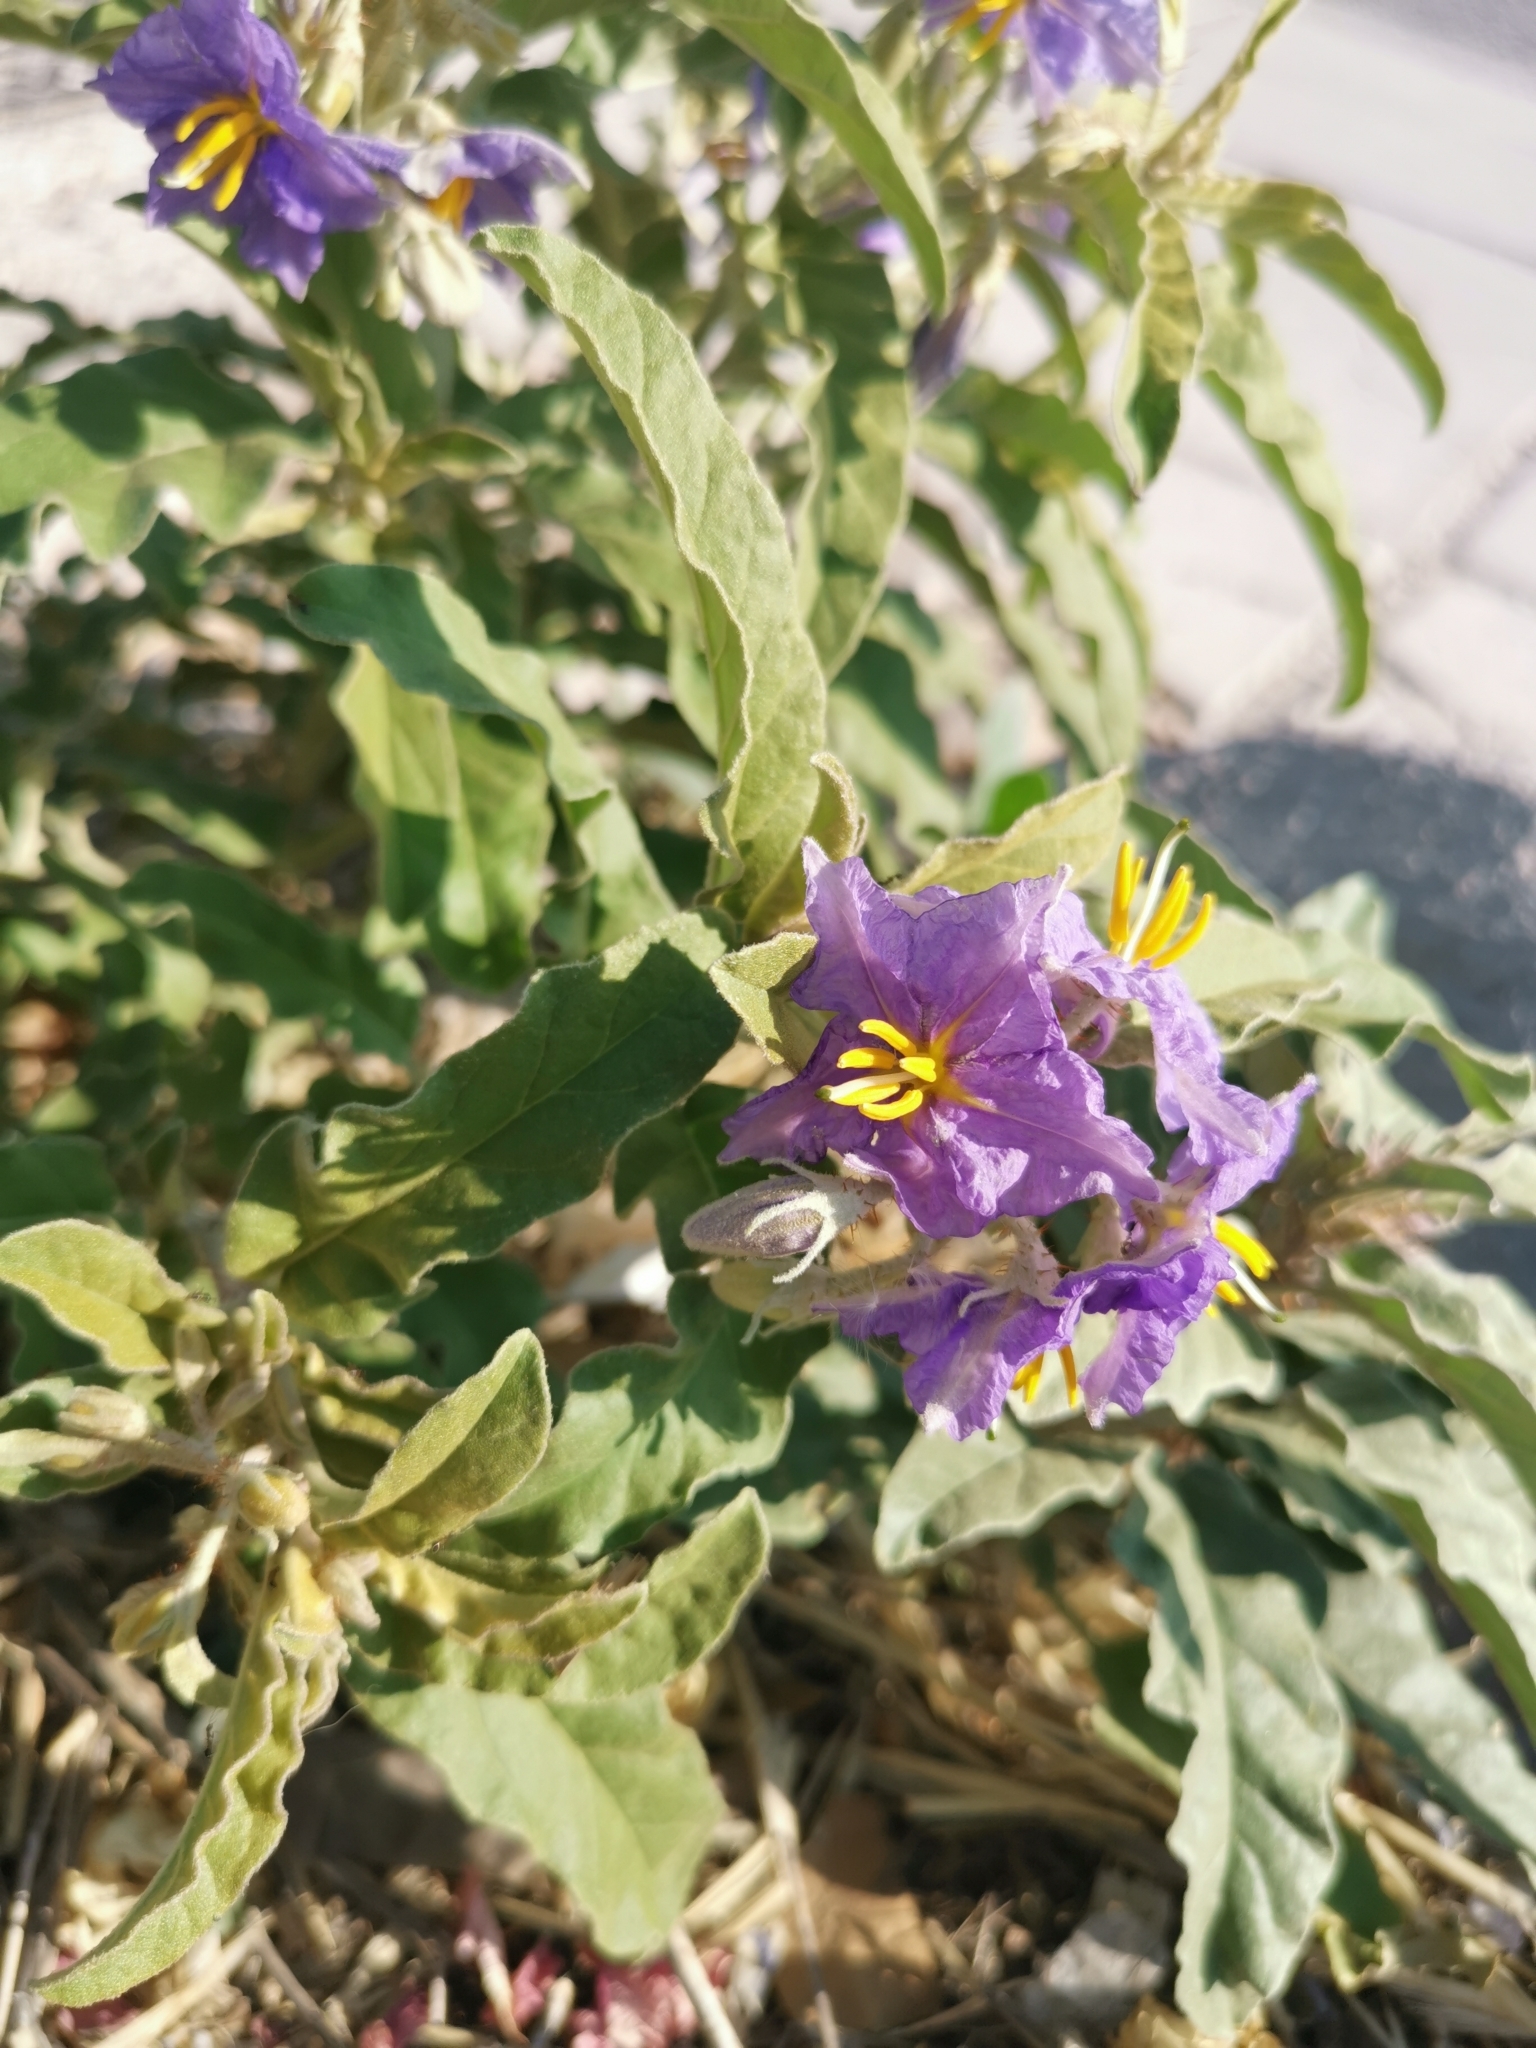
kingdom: Plantae
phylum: Tracheophyta
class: Magnoliopsida
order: Solanales
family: Solanaceae
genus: Solanum
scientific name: Solanum elaeagnifolium
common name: Silverleaf nightshade
